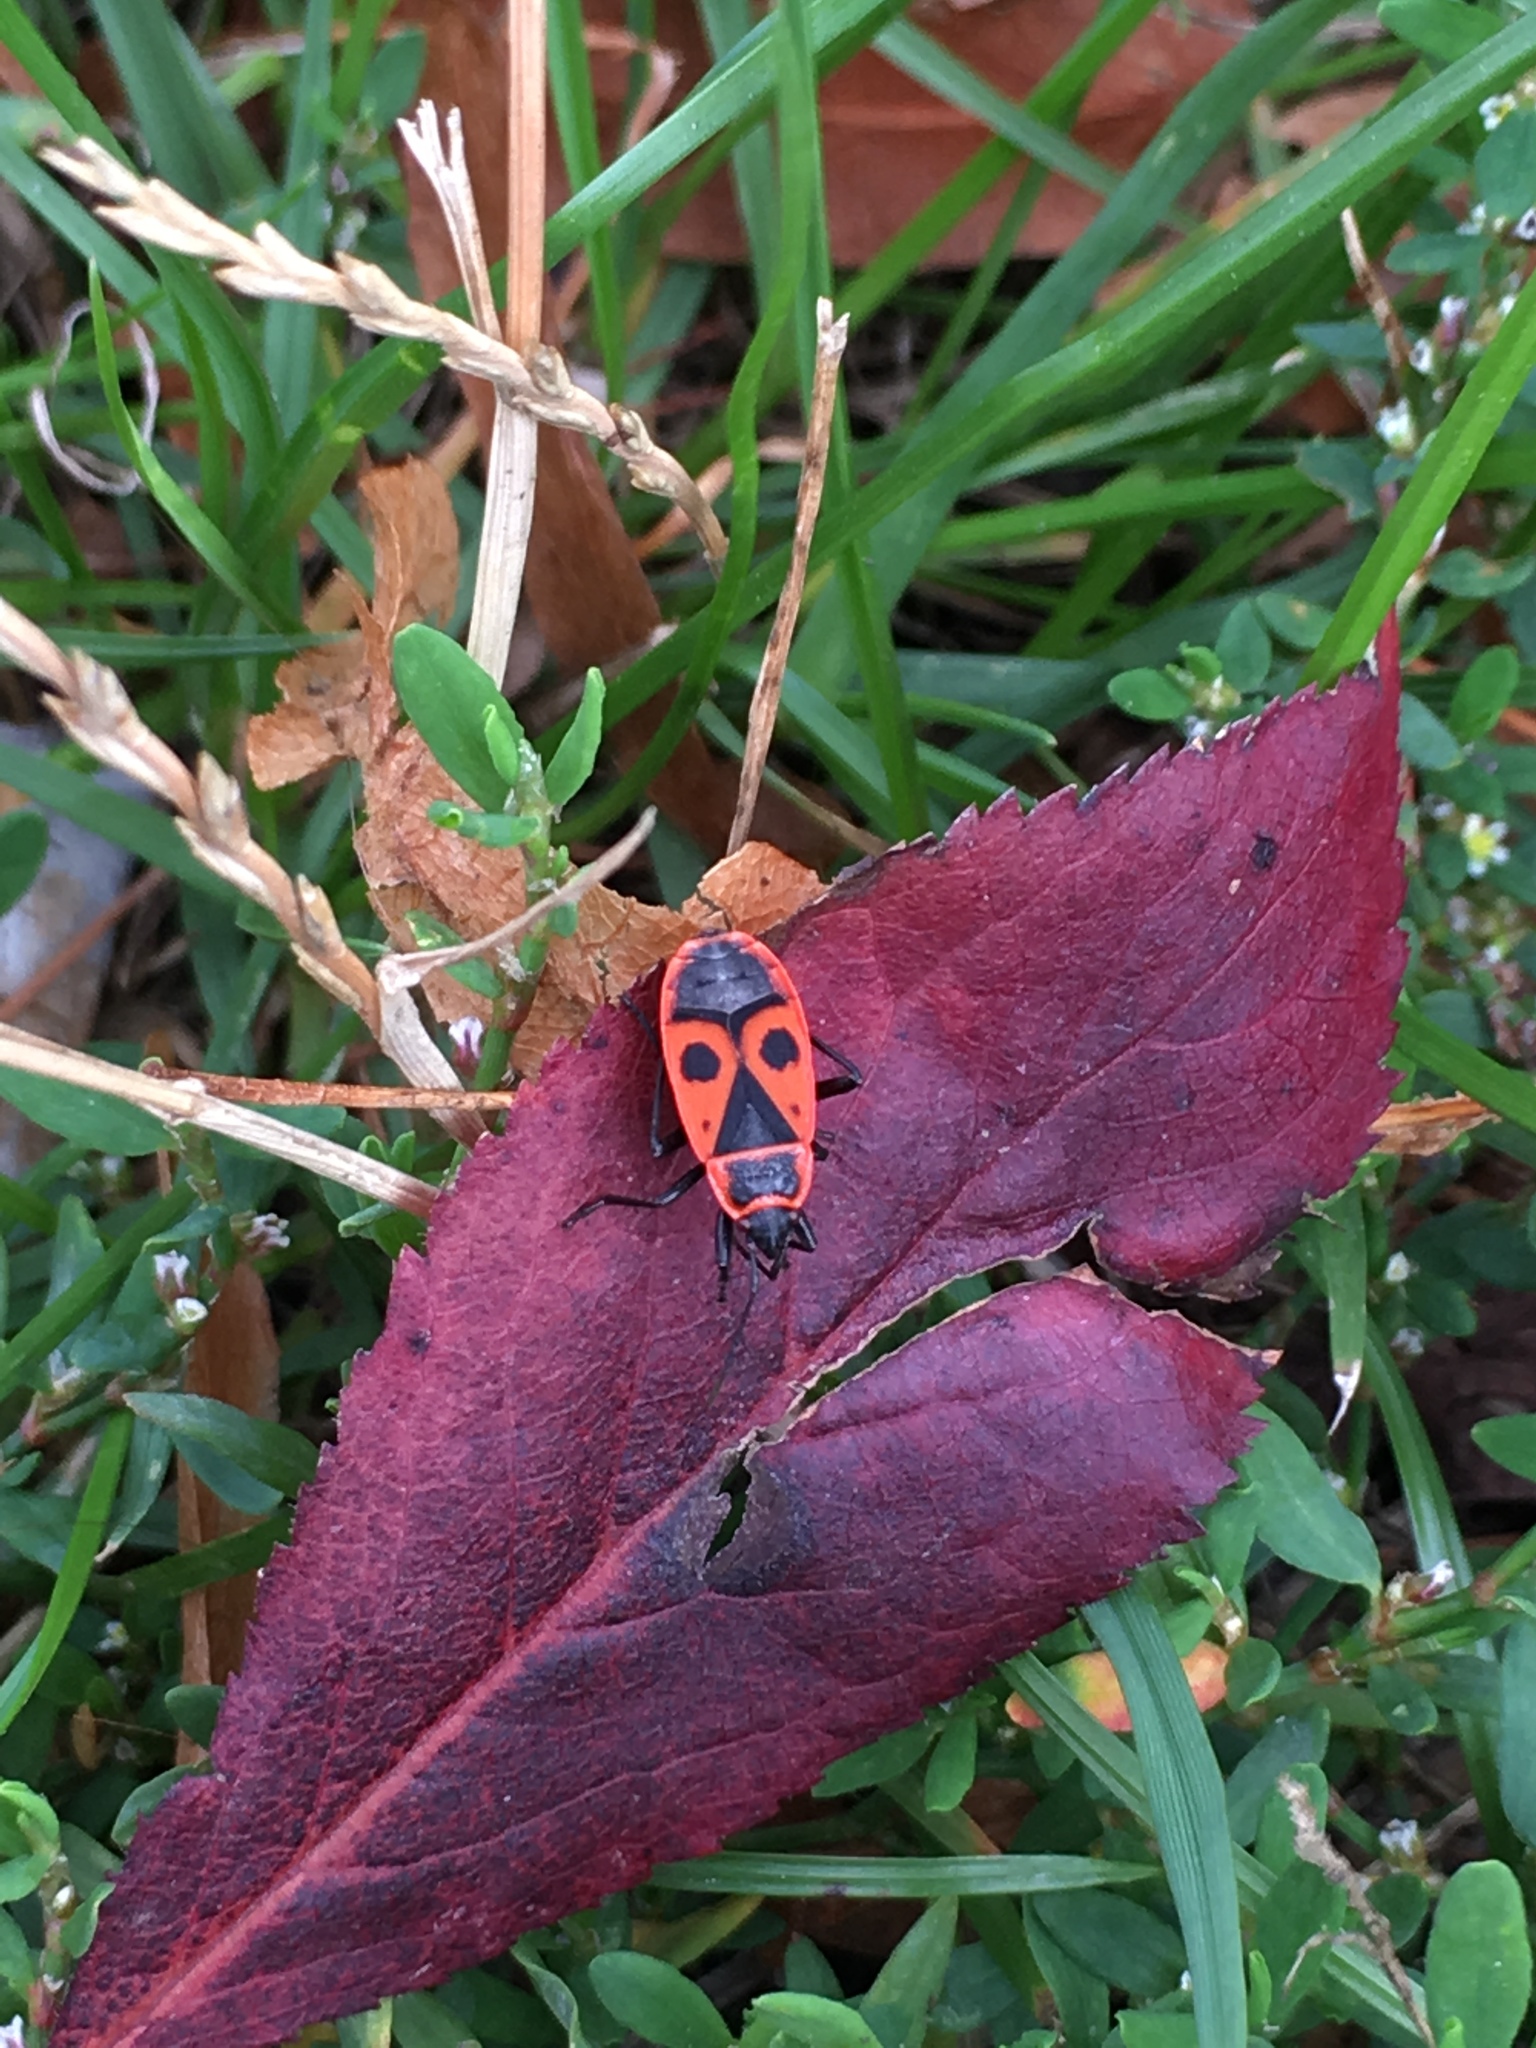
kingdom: Animalia
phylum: Arthropoda
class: Insecta
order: Hemiptera
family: Pyrrhocoridae
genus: Pyrrhocoris
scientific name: Pyrrhocoris apterus
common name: Firebug
